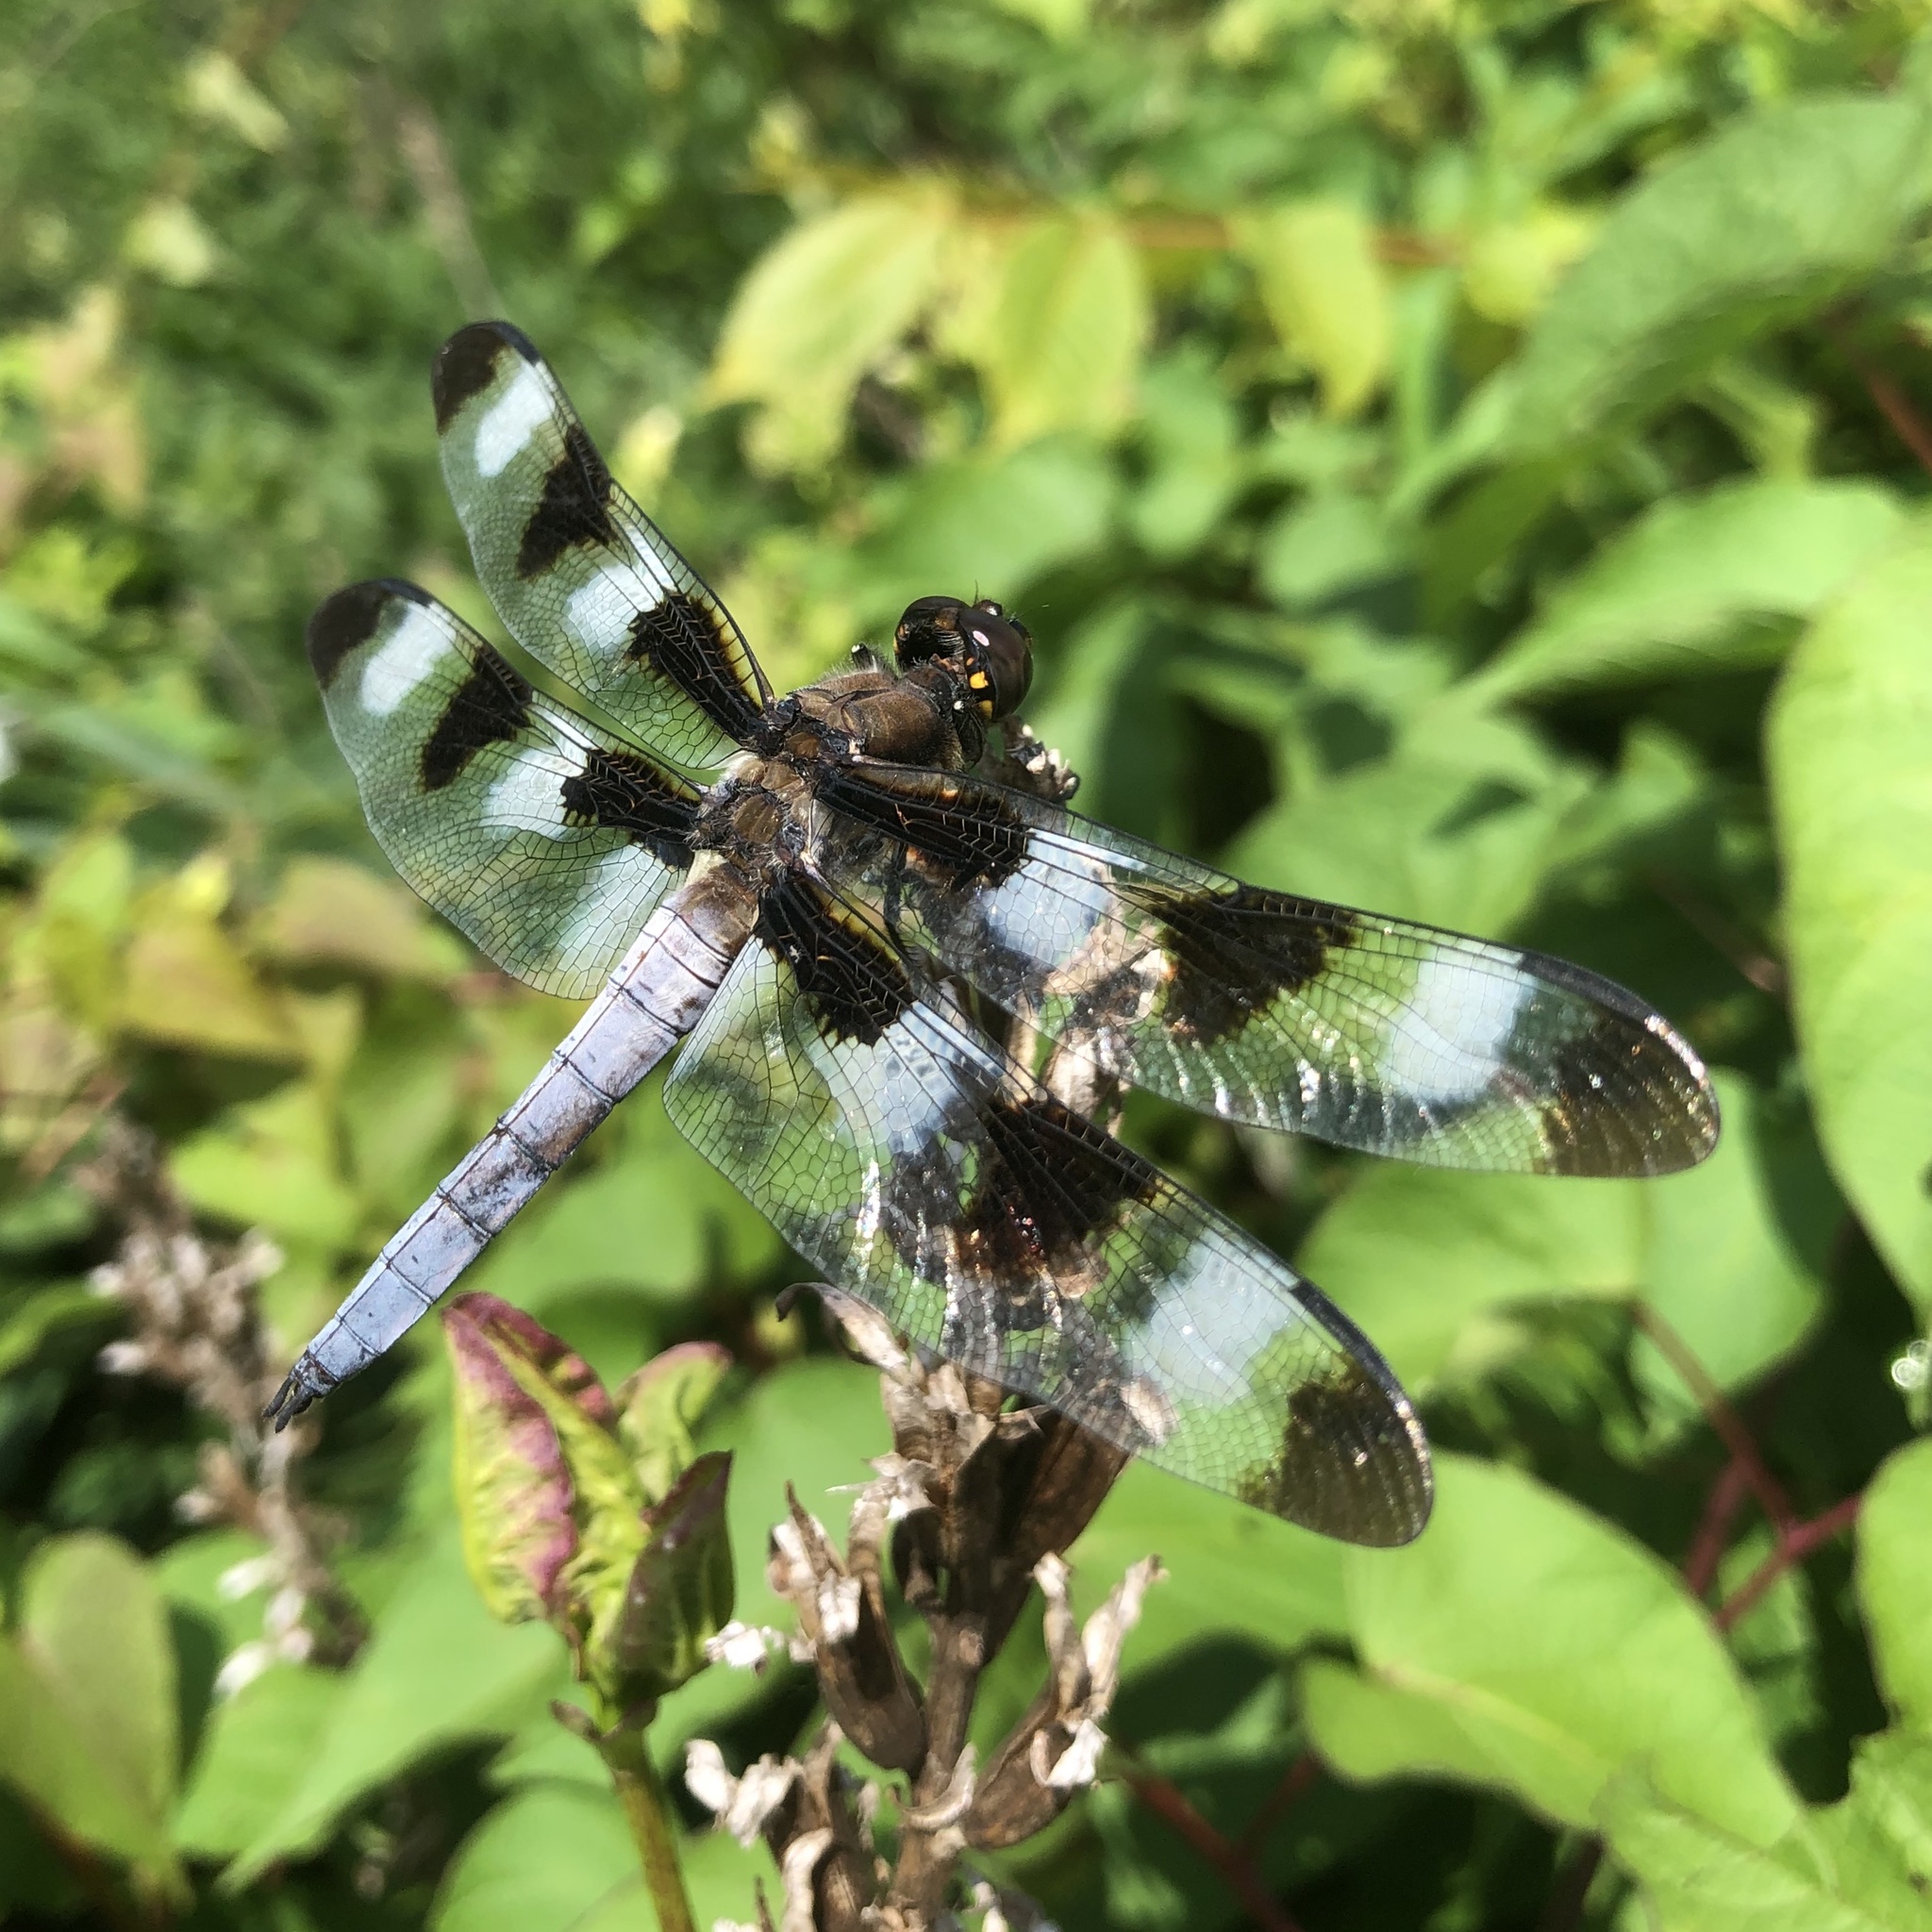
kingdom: Animalia
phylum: Arthropoda
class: Insecta
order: Odonata
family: Libellulidae
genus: Libellula
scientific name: Libellula pulchella
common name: Twelve-spotted skimmer
